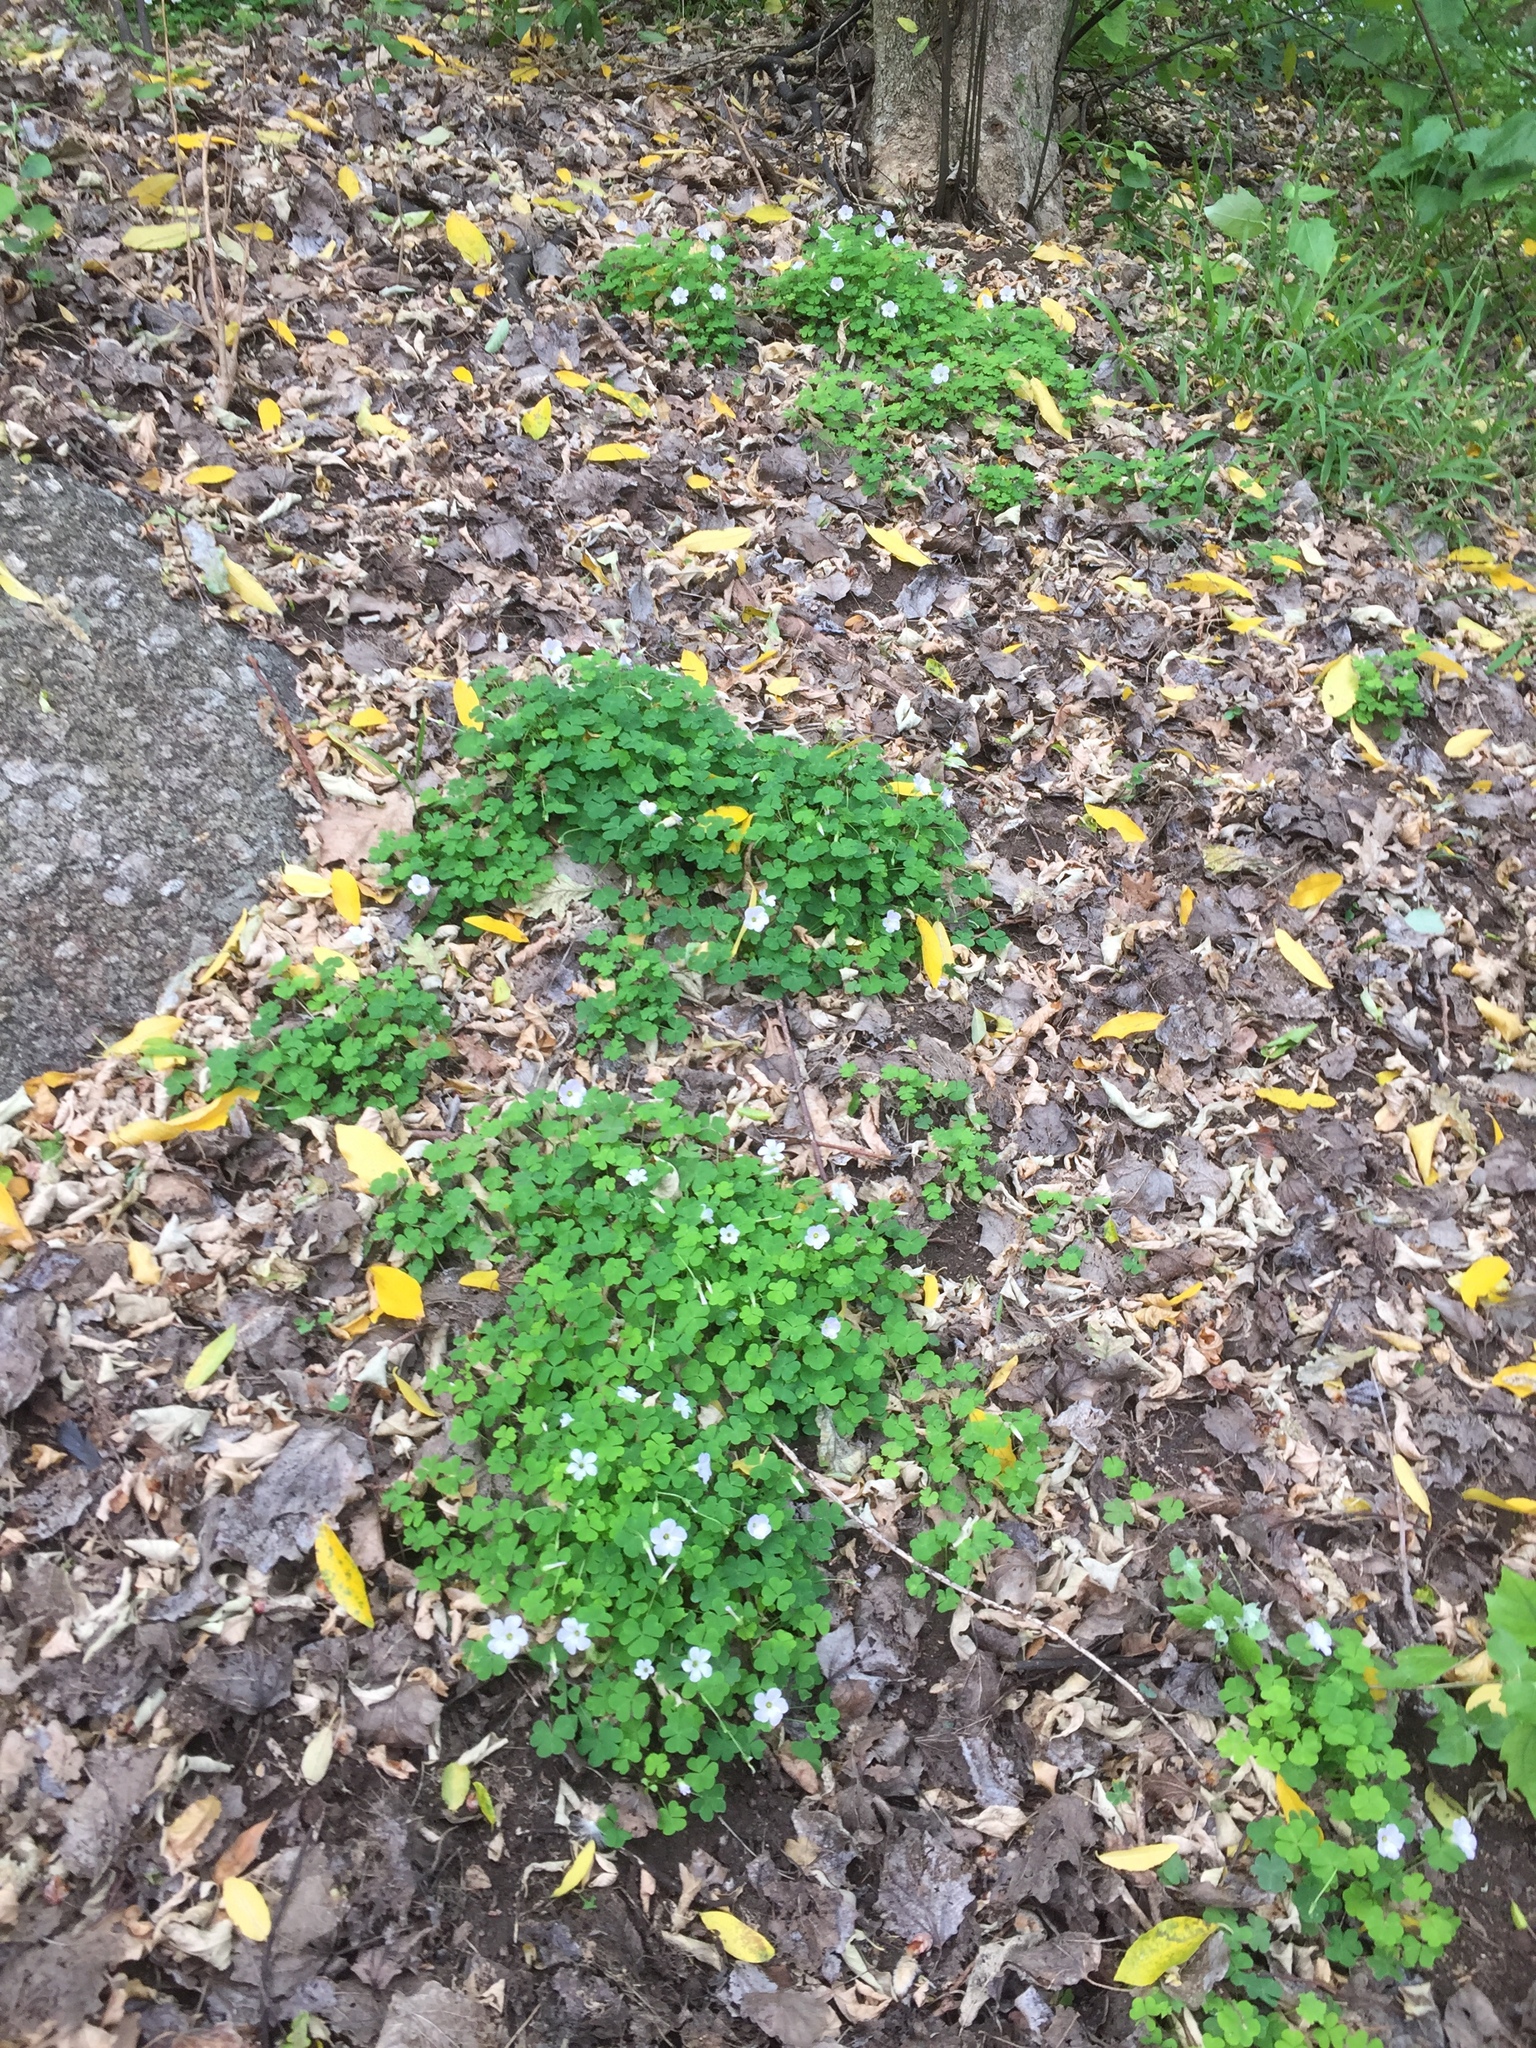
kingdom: Plantae
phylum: Tracheophyta
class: Magnoliopsida
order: Oxalidales
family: Oxalidaceae
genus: Oxalis
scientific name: Oxalis incarnata
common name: Pale pink-sorrel
